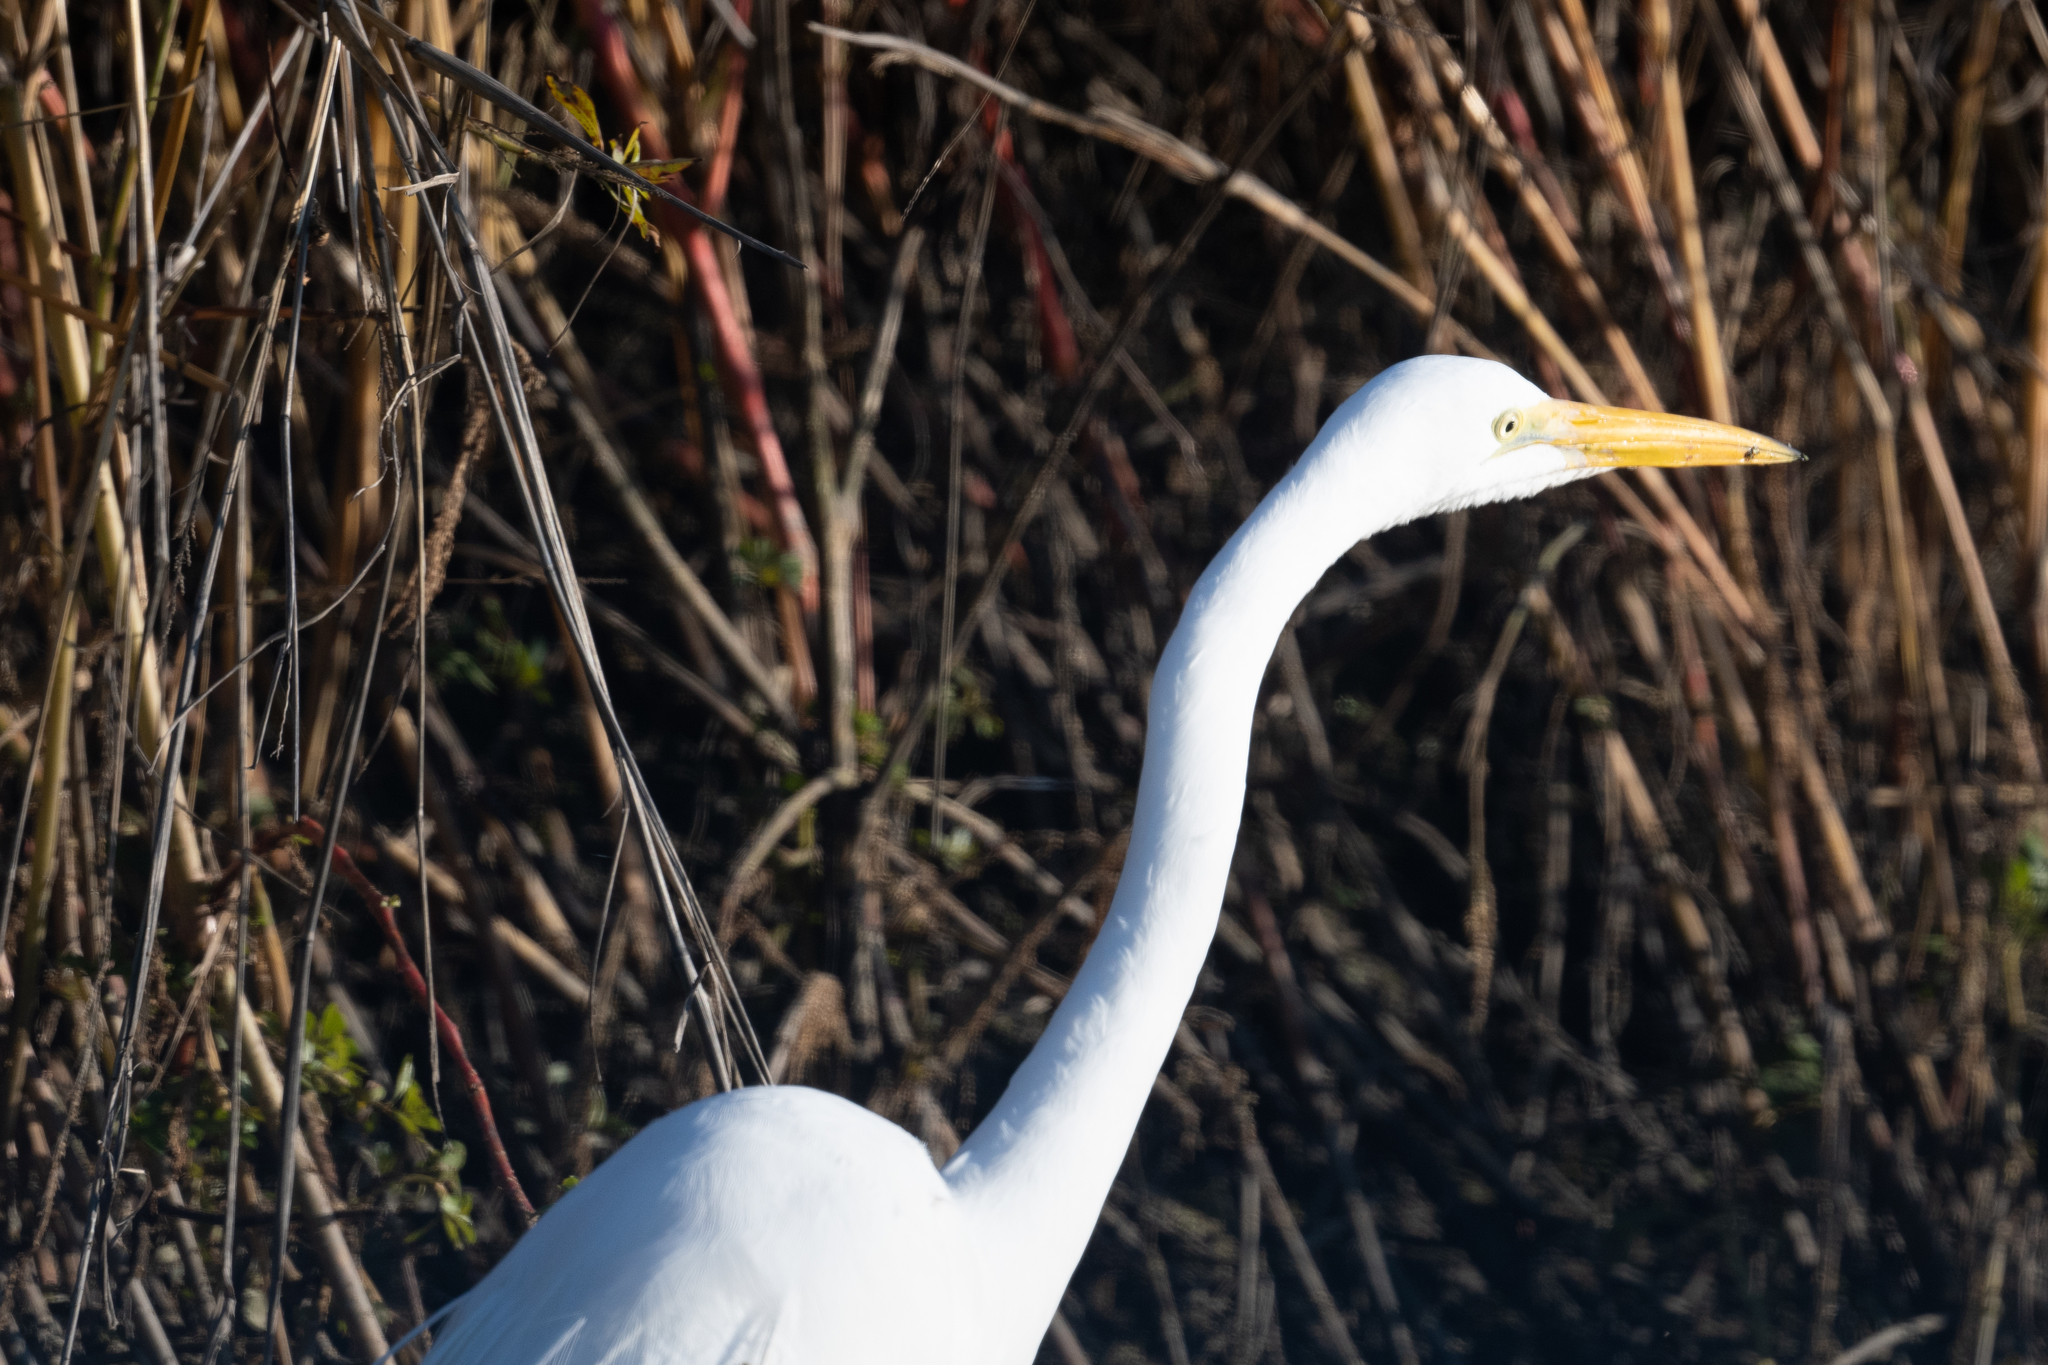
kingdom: Animalia
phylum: Chordata
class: Aves
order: Pelecaniformes
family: Ardeidae
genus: Ardea
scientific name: Ardea alba
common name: Great egret
